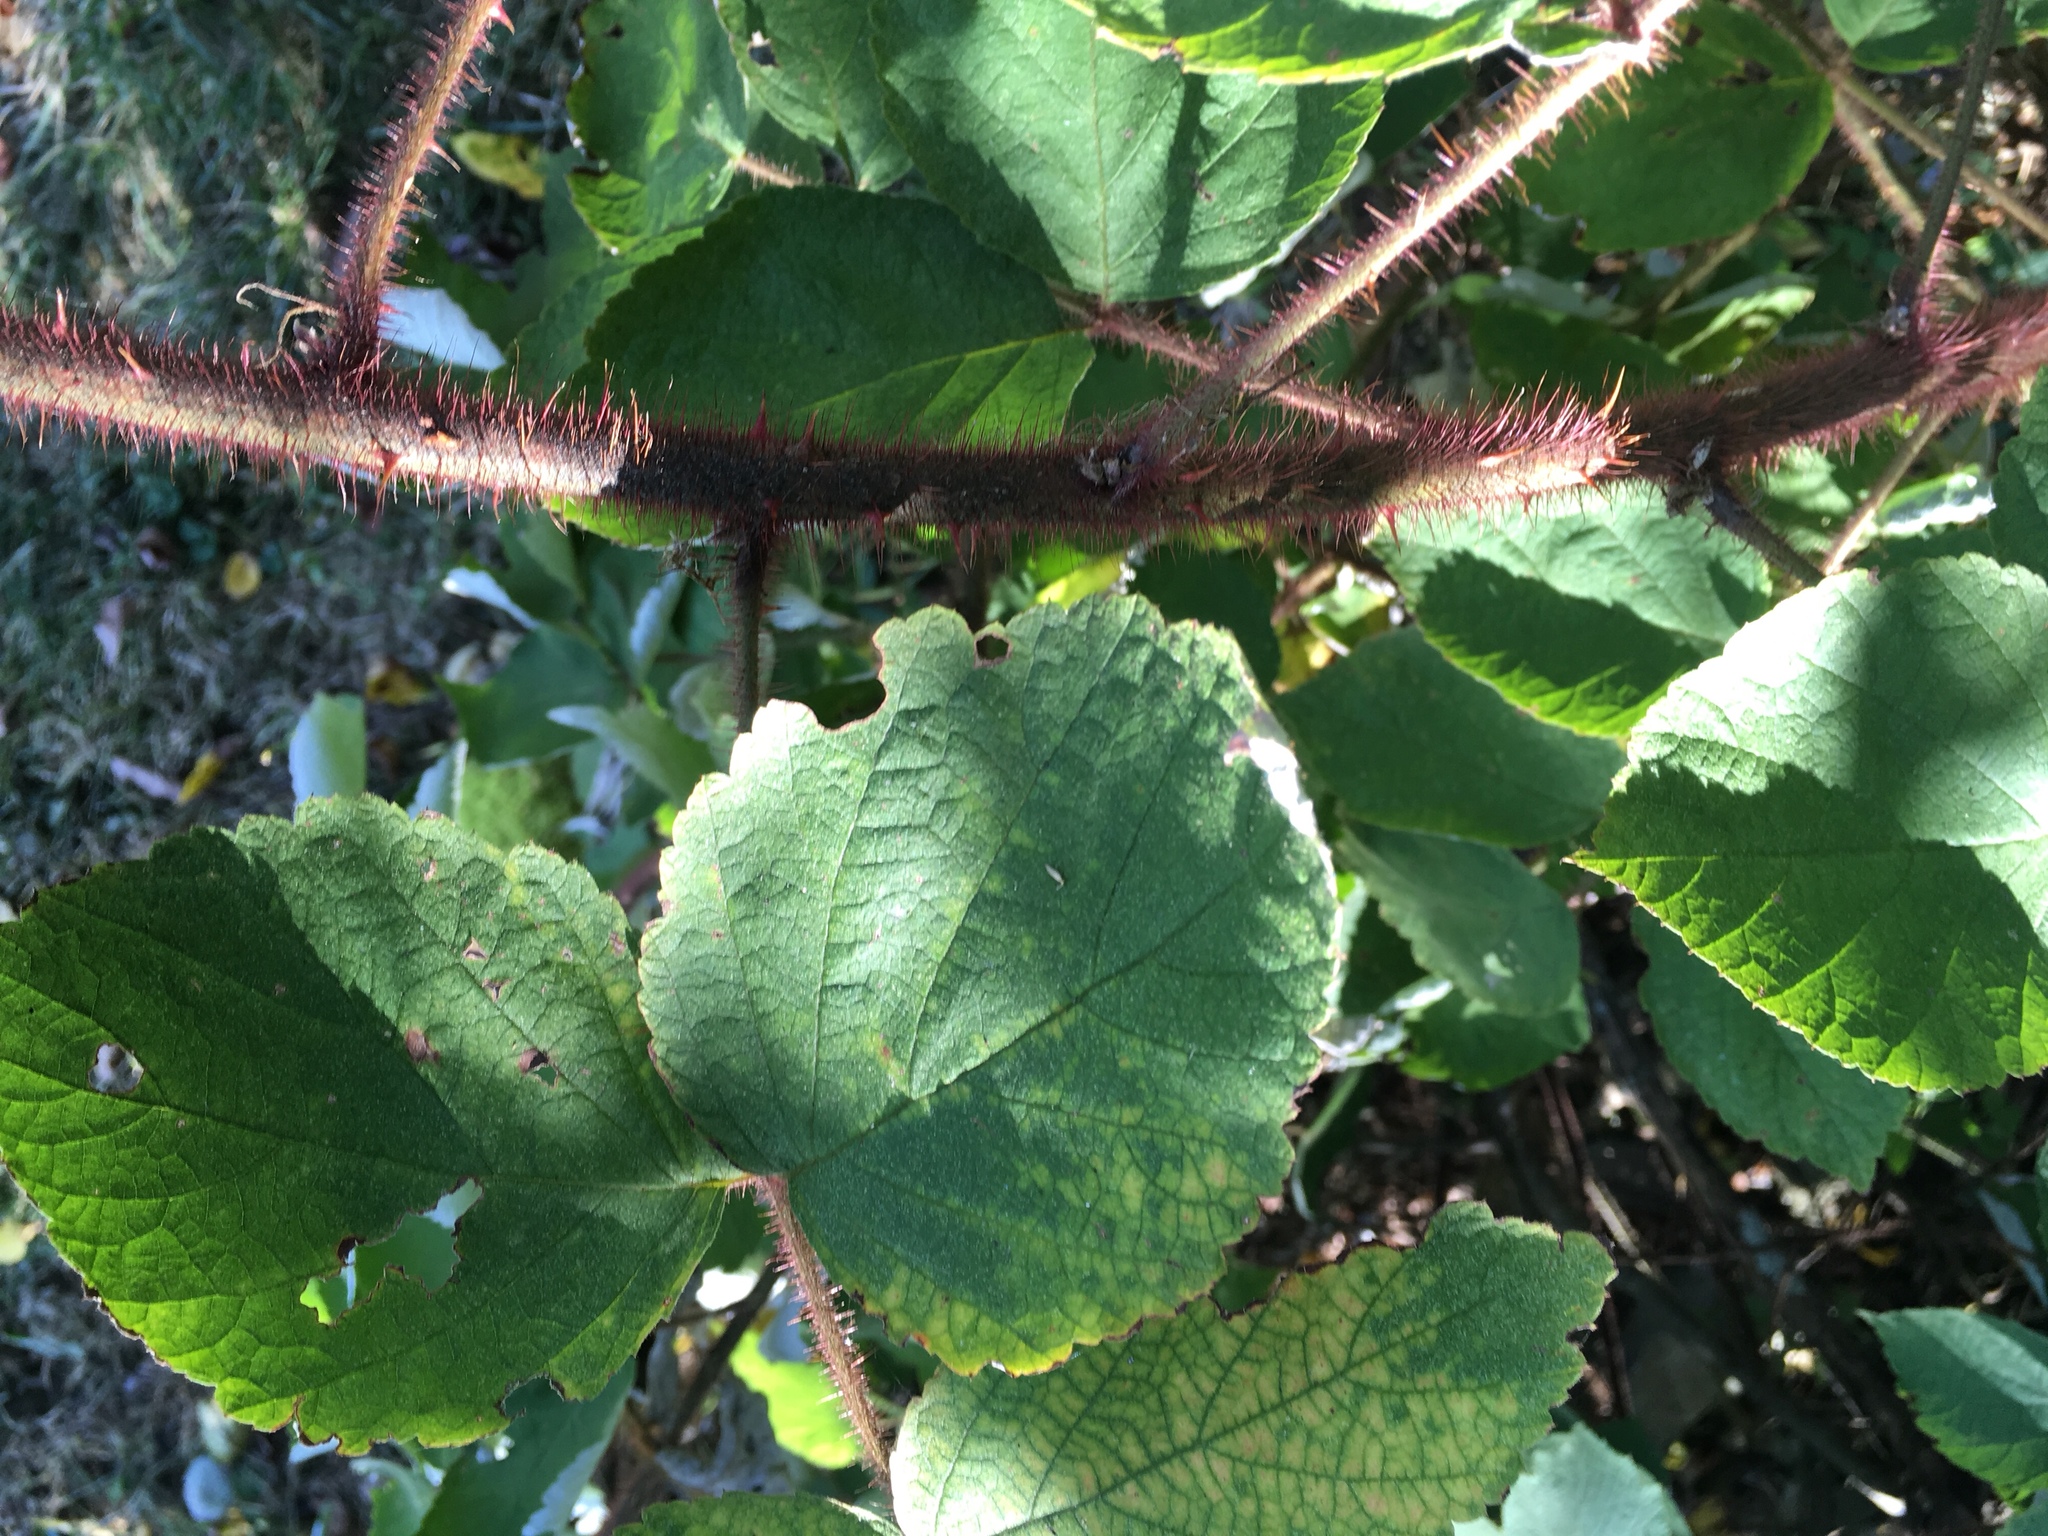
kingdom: Plantae
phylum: Tracheophyta
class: Magnoliopsida
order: Rosales
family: Rosaceae
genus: Rubus
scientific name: Rubus phoenicolasius
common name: Japanese wineberry
